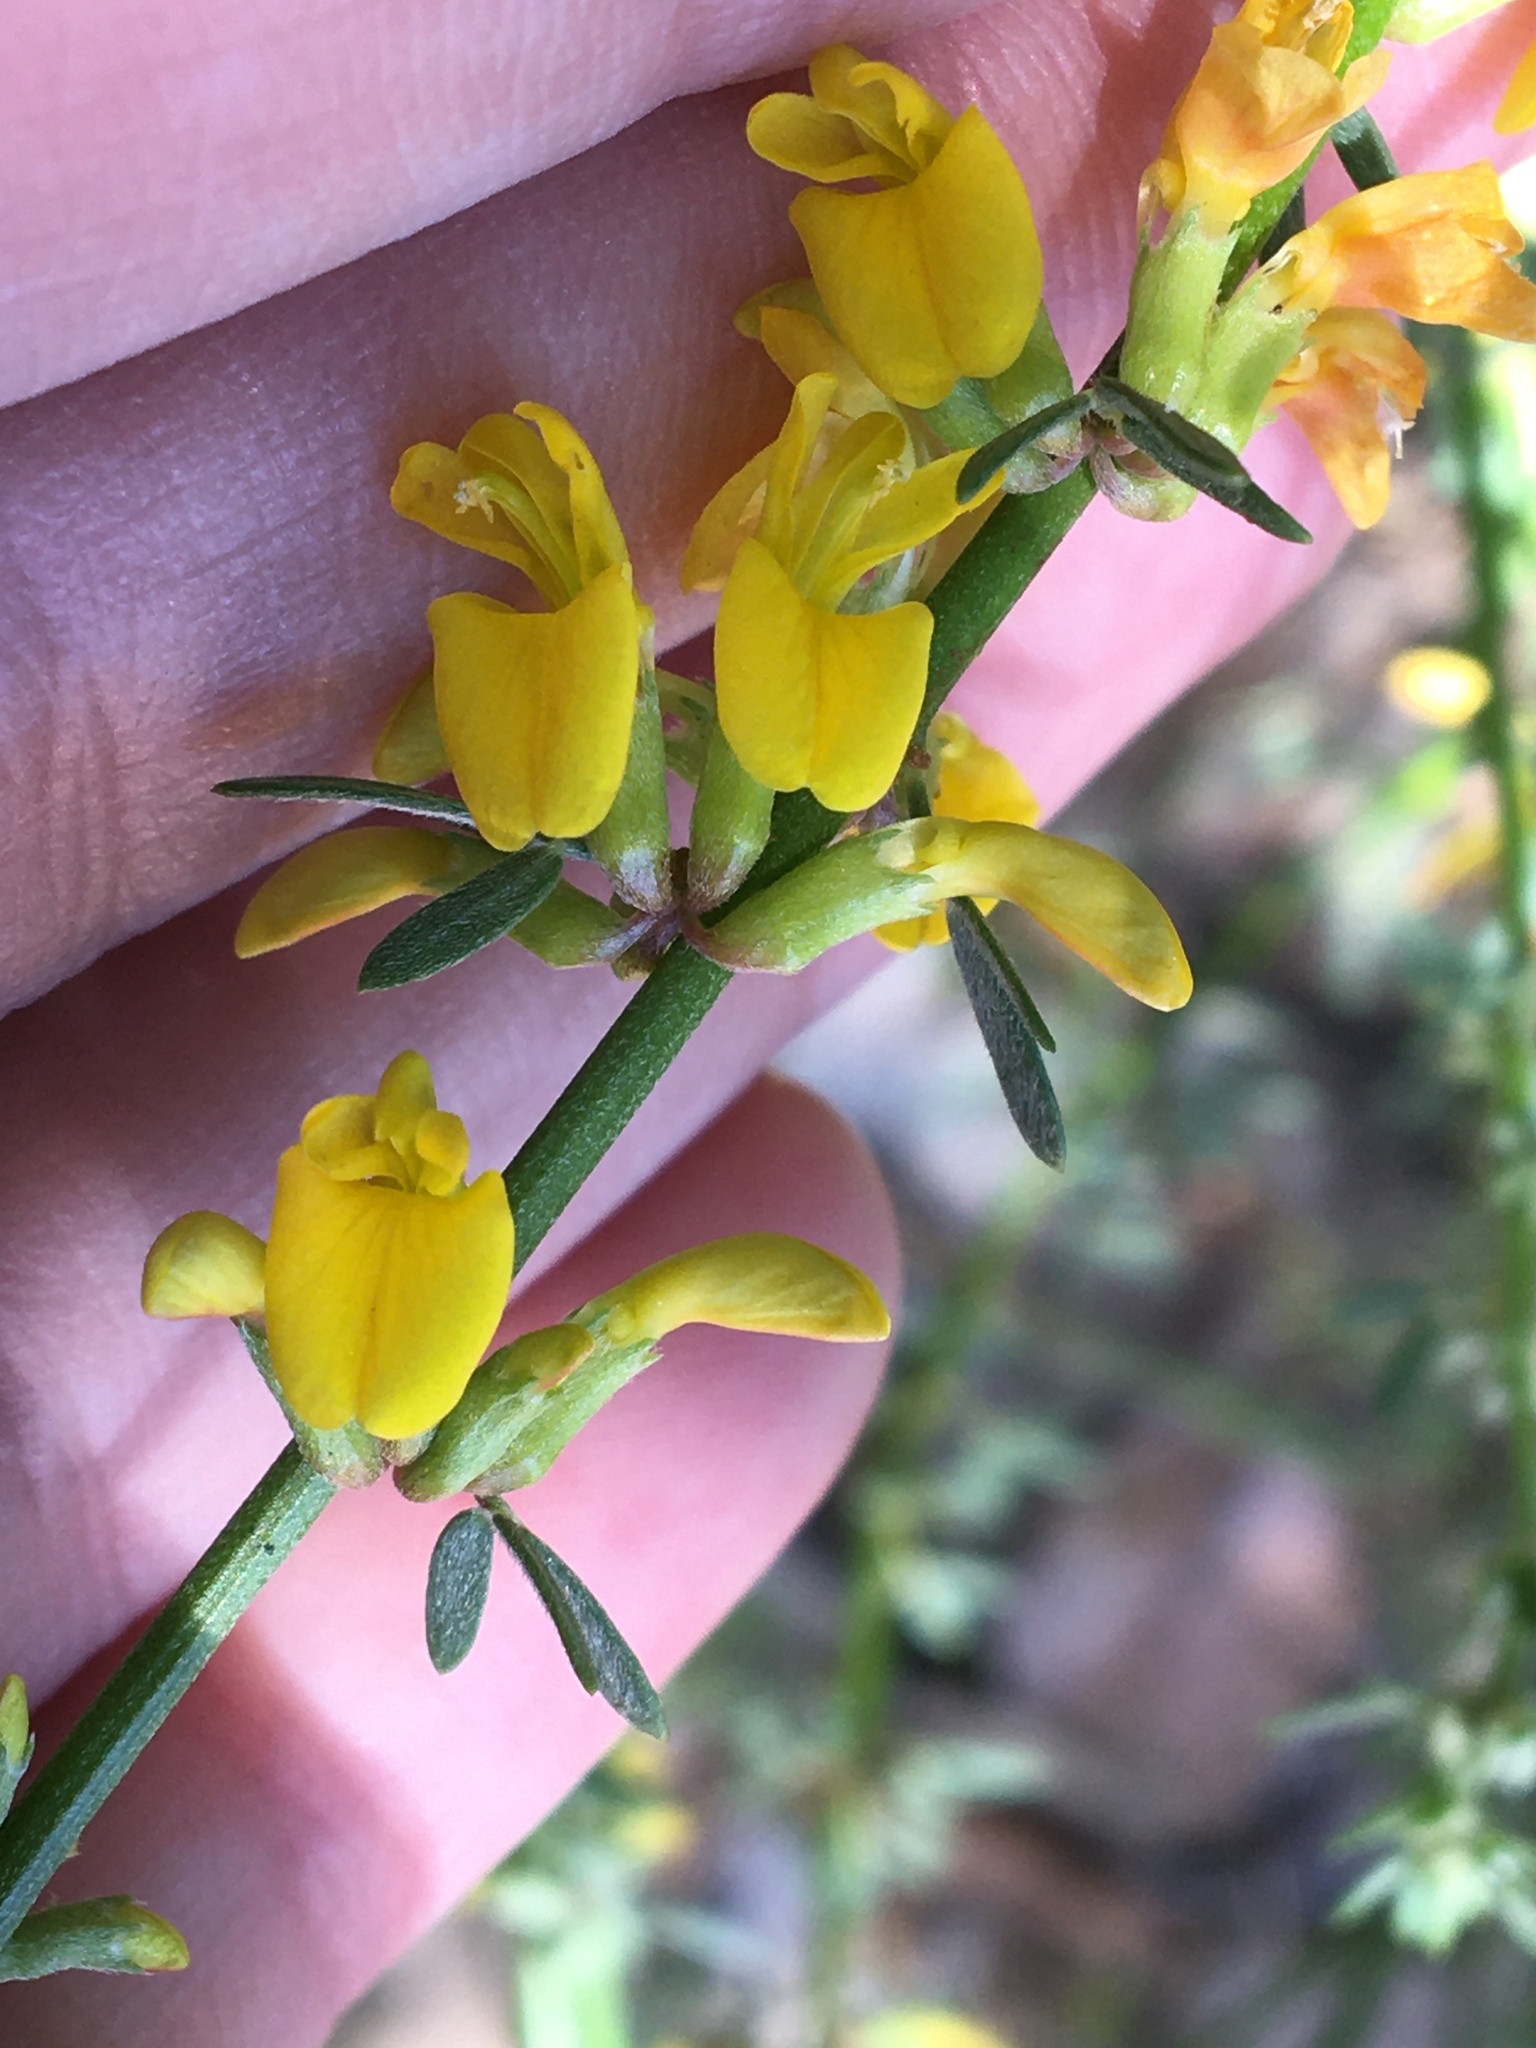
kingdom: Plantae
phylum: Tracheophyta
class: Magnoliopsida
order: Fabales
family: Fabaceae
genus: Acmispon
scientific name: Acmispon glaber
